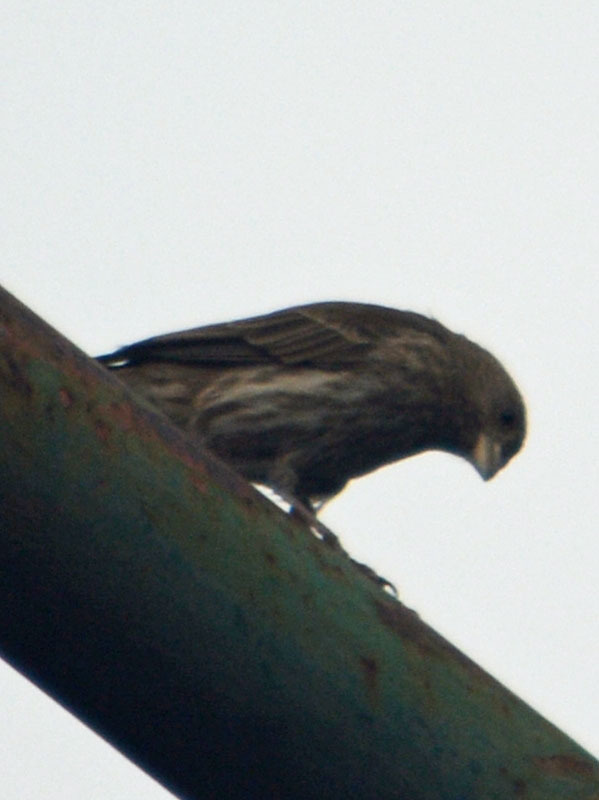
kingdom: Animalia
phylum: Chordata
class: Aves
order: Passeriformes
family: Fringillidae
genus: Haemorhous
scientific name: Haemorhous mexicanus
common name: House finch
